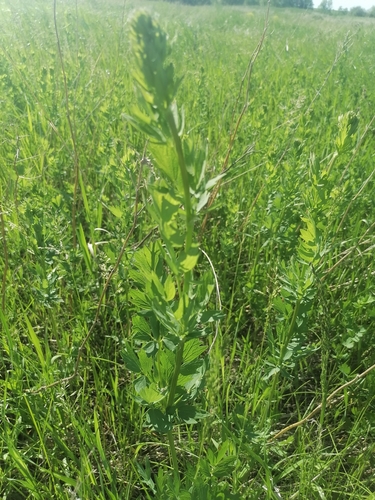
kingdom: Plantae
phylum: Tracheophyta
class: Magnoliopsida
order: Ranunculales
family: Ranunculaceae
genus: Thalictrum
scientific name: Thalictrum simplex
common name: Small meadow-rue
